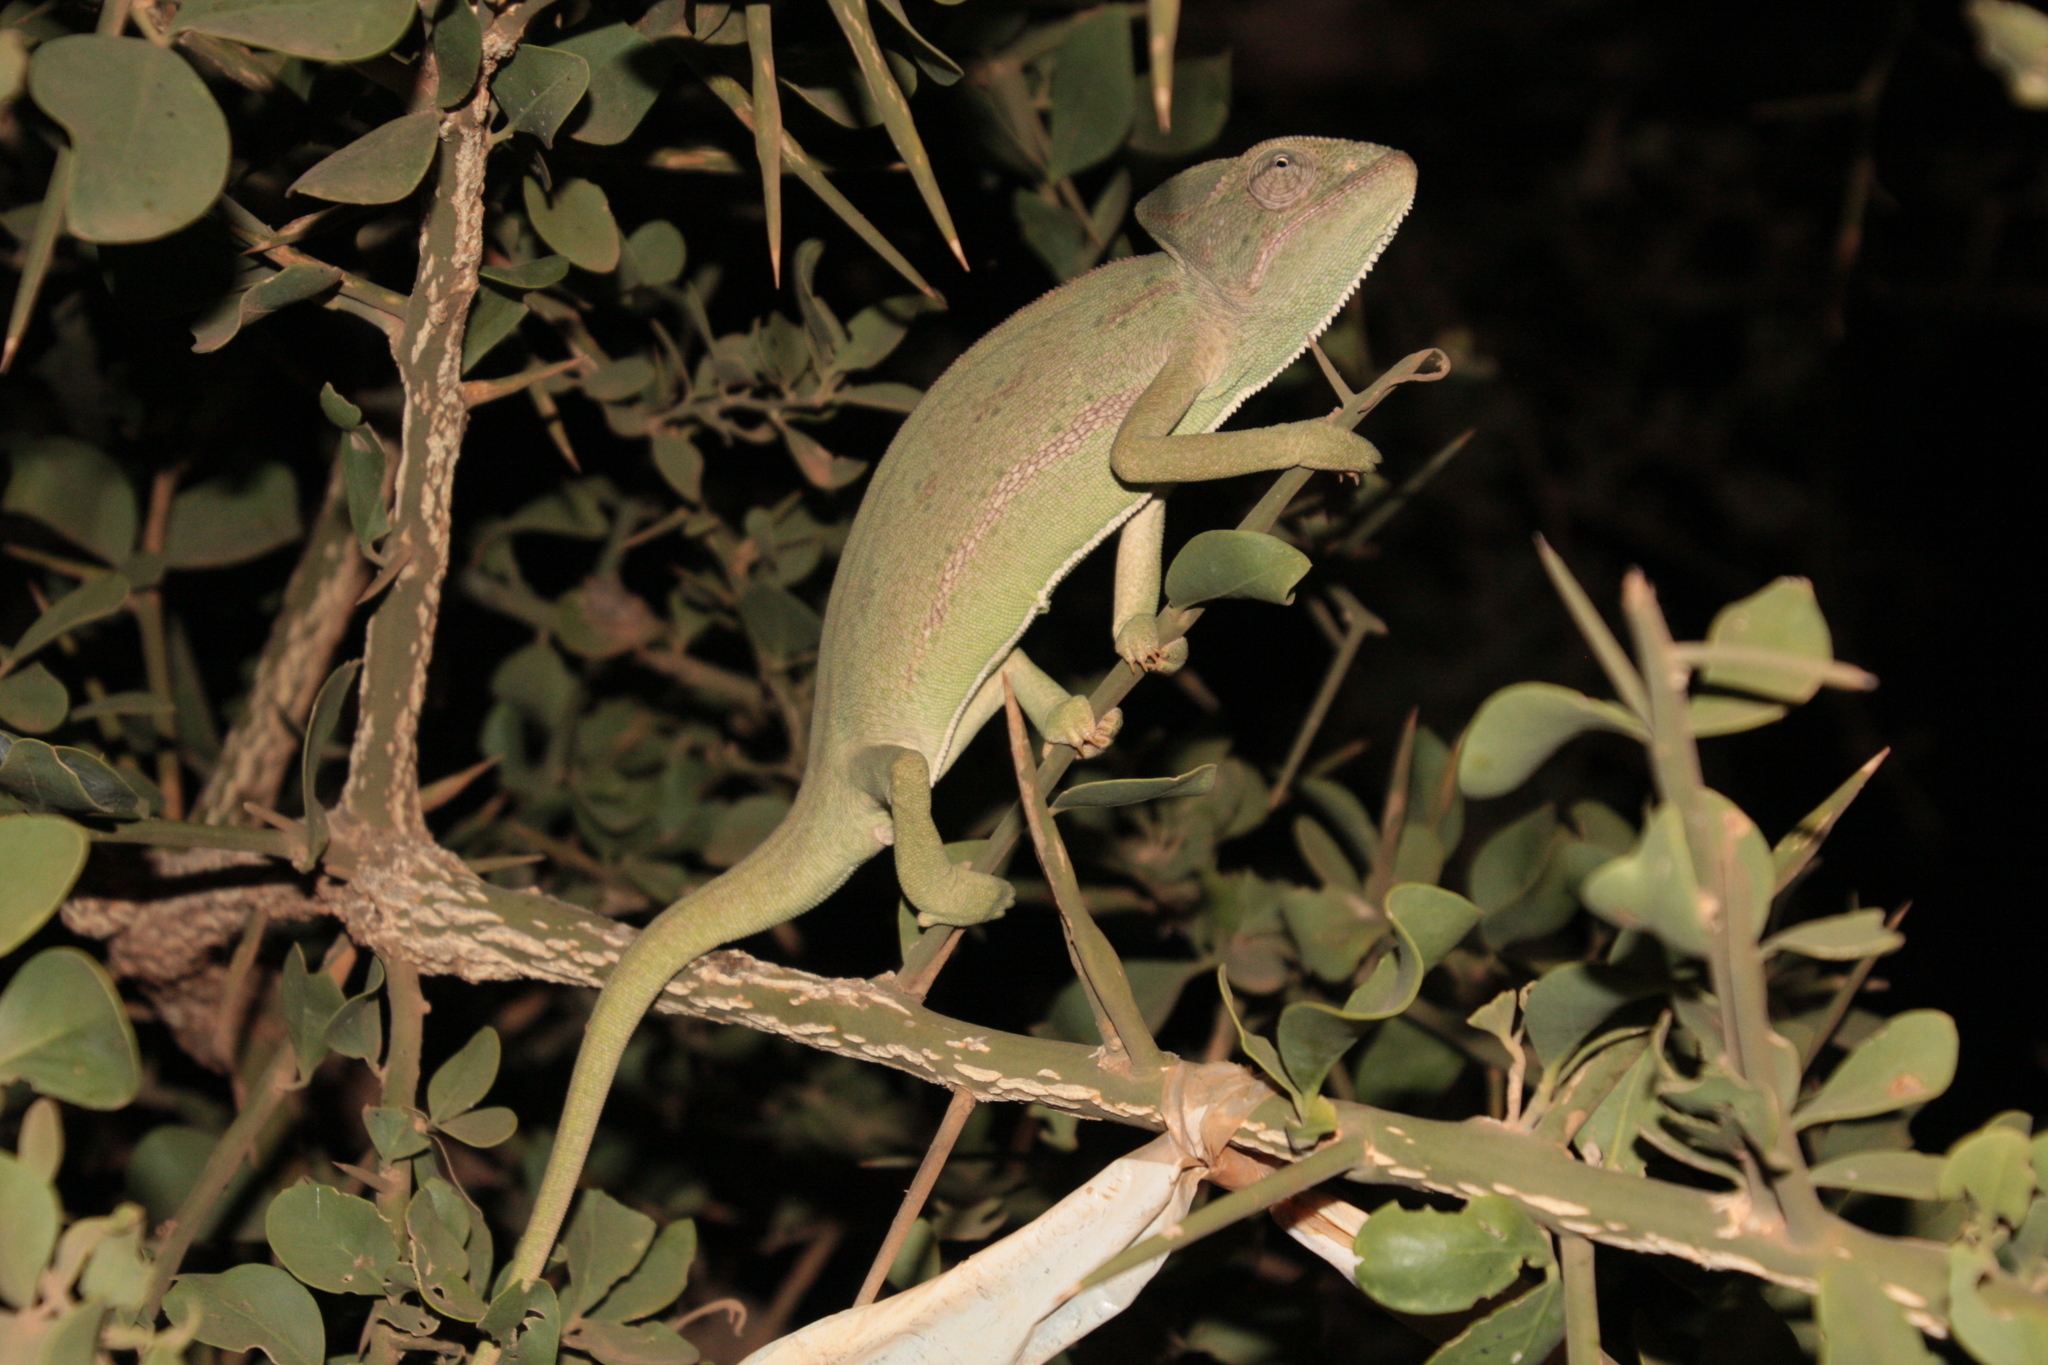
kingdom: Animalia
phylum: Chordata
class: Squamata
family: Chamaeleonidae
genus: Chamaeleo
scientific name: Chamaeleo africanus
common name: African chameleon
